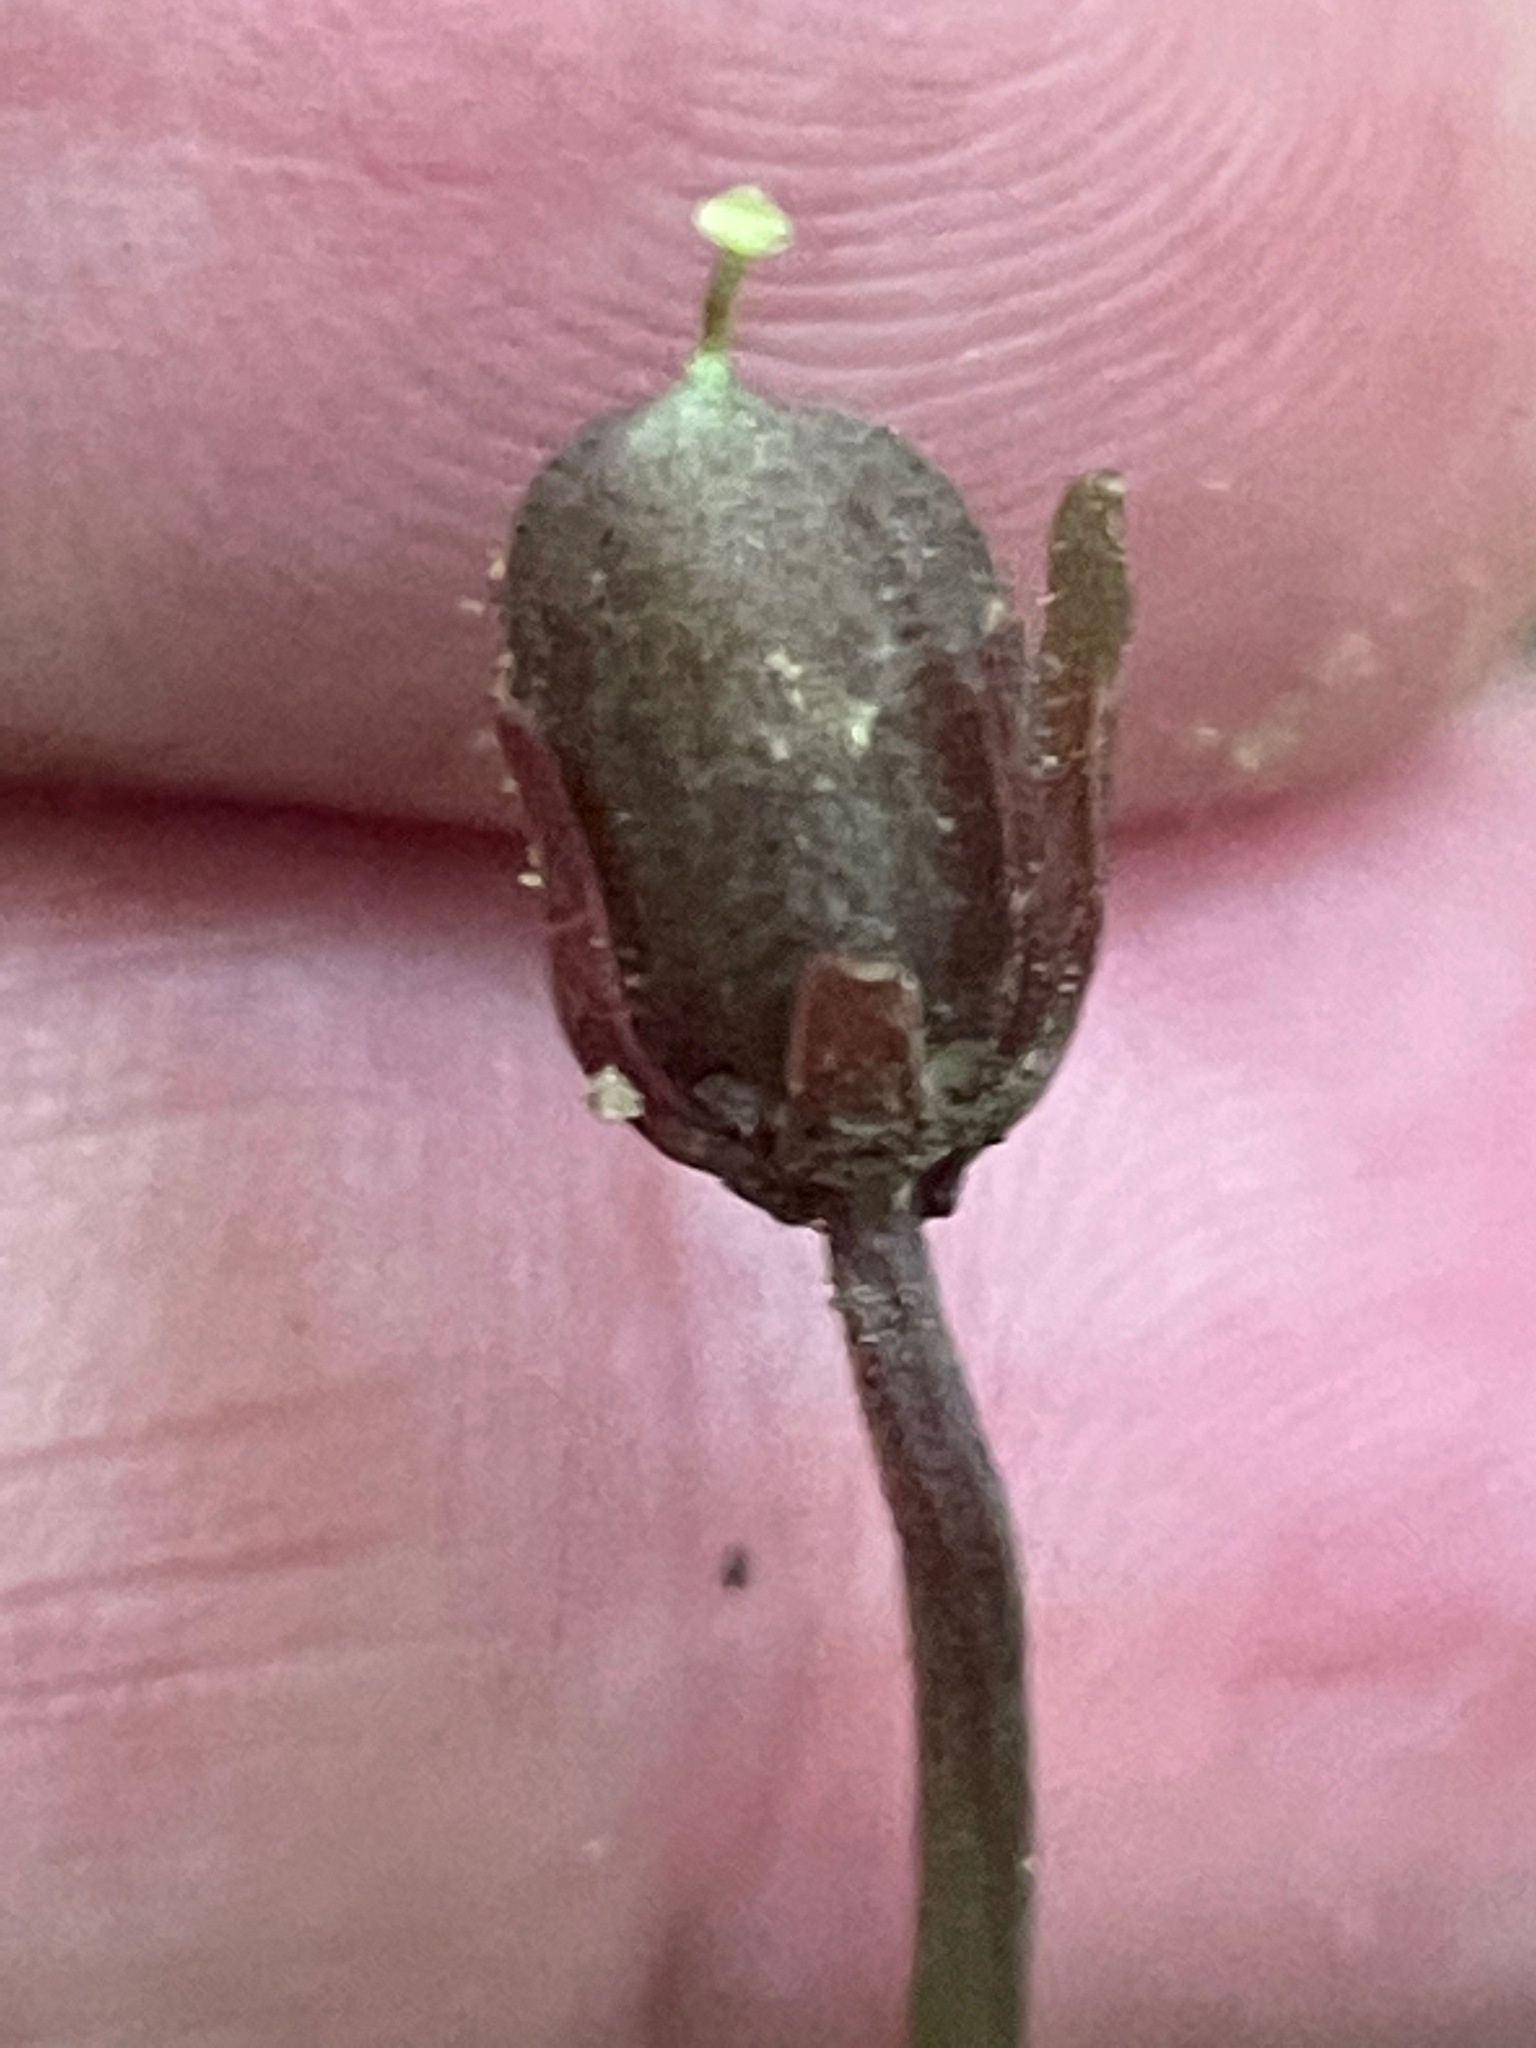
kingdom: Plantae
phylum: Tracheophyta
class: Magnoliopsida
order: Malpighiales
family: Violaceae
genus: Viola
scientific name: Viola rotundifolia
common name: Early yellow violet
